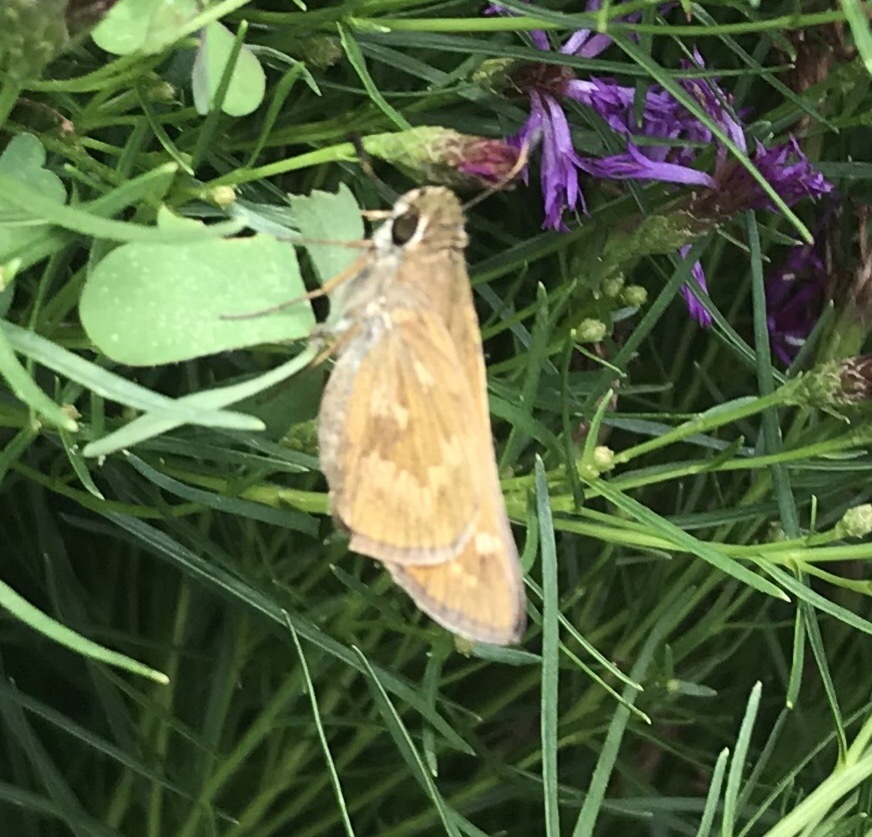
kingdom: Animalia
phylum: Arthropoda
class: Insecta
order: Lepidoptera
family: Hesperiidae
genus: Atalopedes
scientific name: Atalopedes
